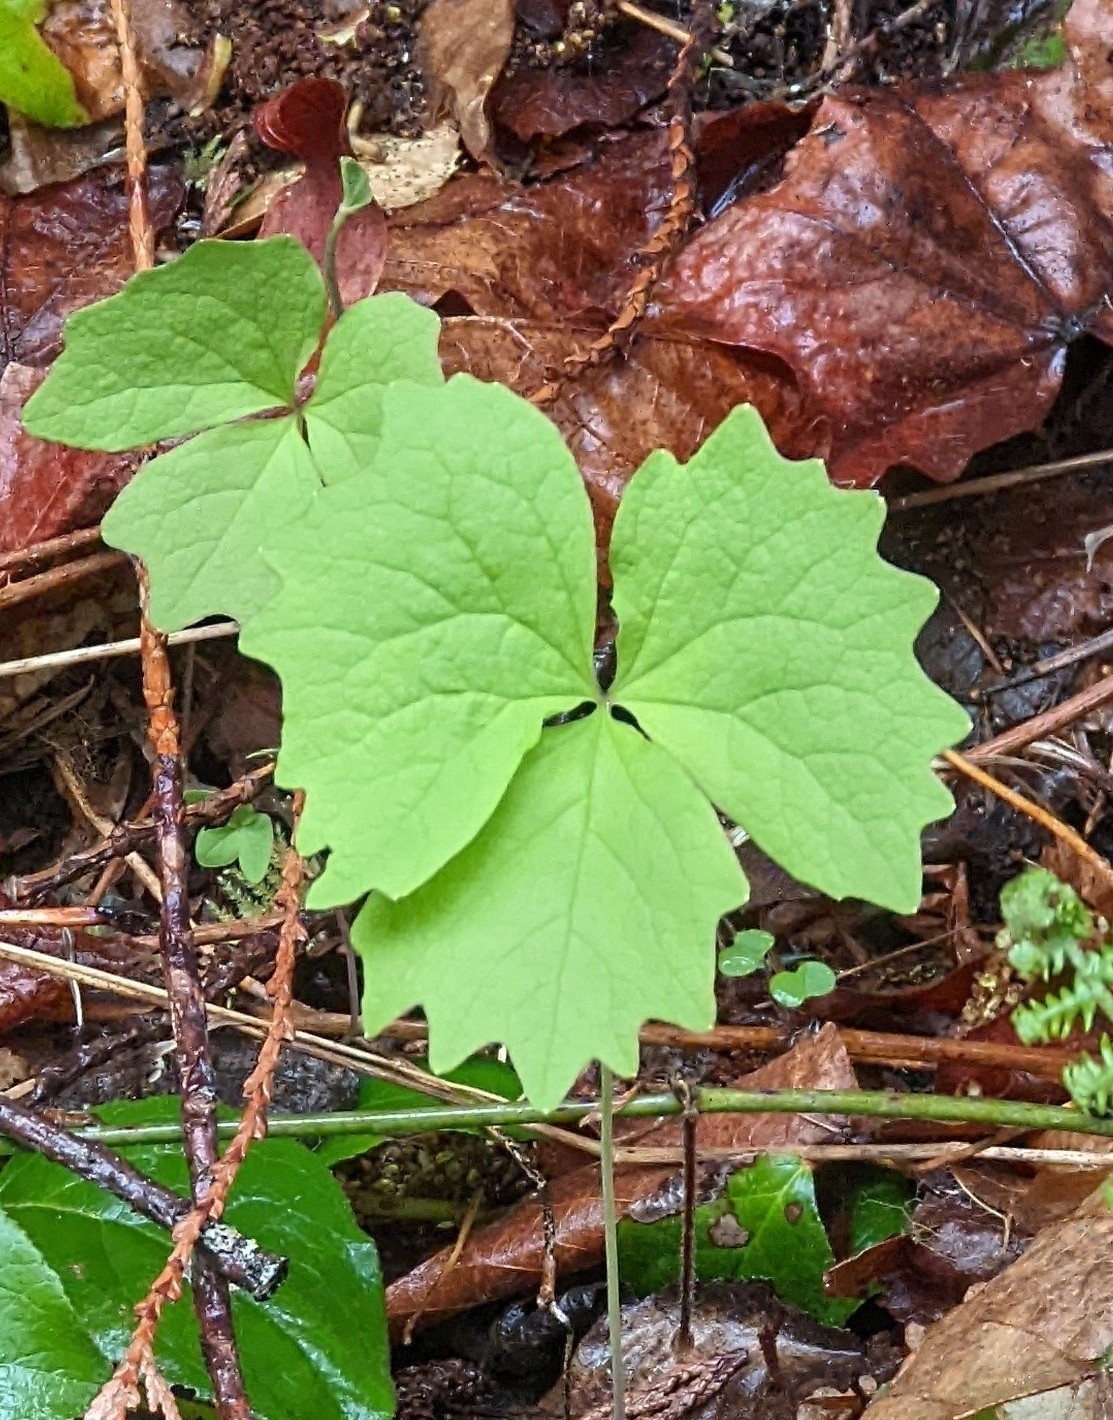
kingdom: Plantae
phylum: Tracheophyta
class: Magnoliopsida
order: Ranunculales
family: Berberidaceae
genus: Achlys
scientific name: Achlys californica
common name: California deer-foot
